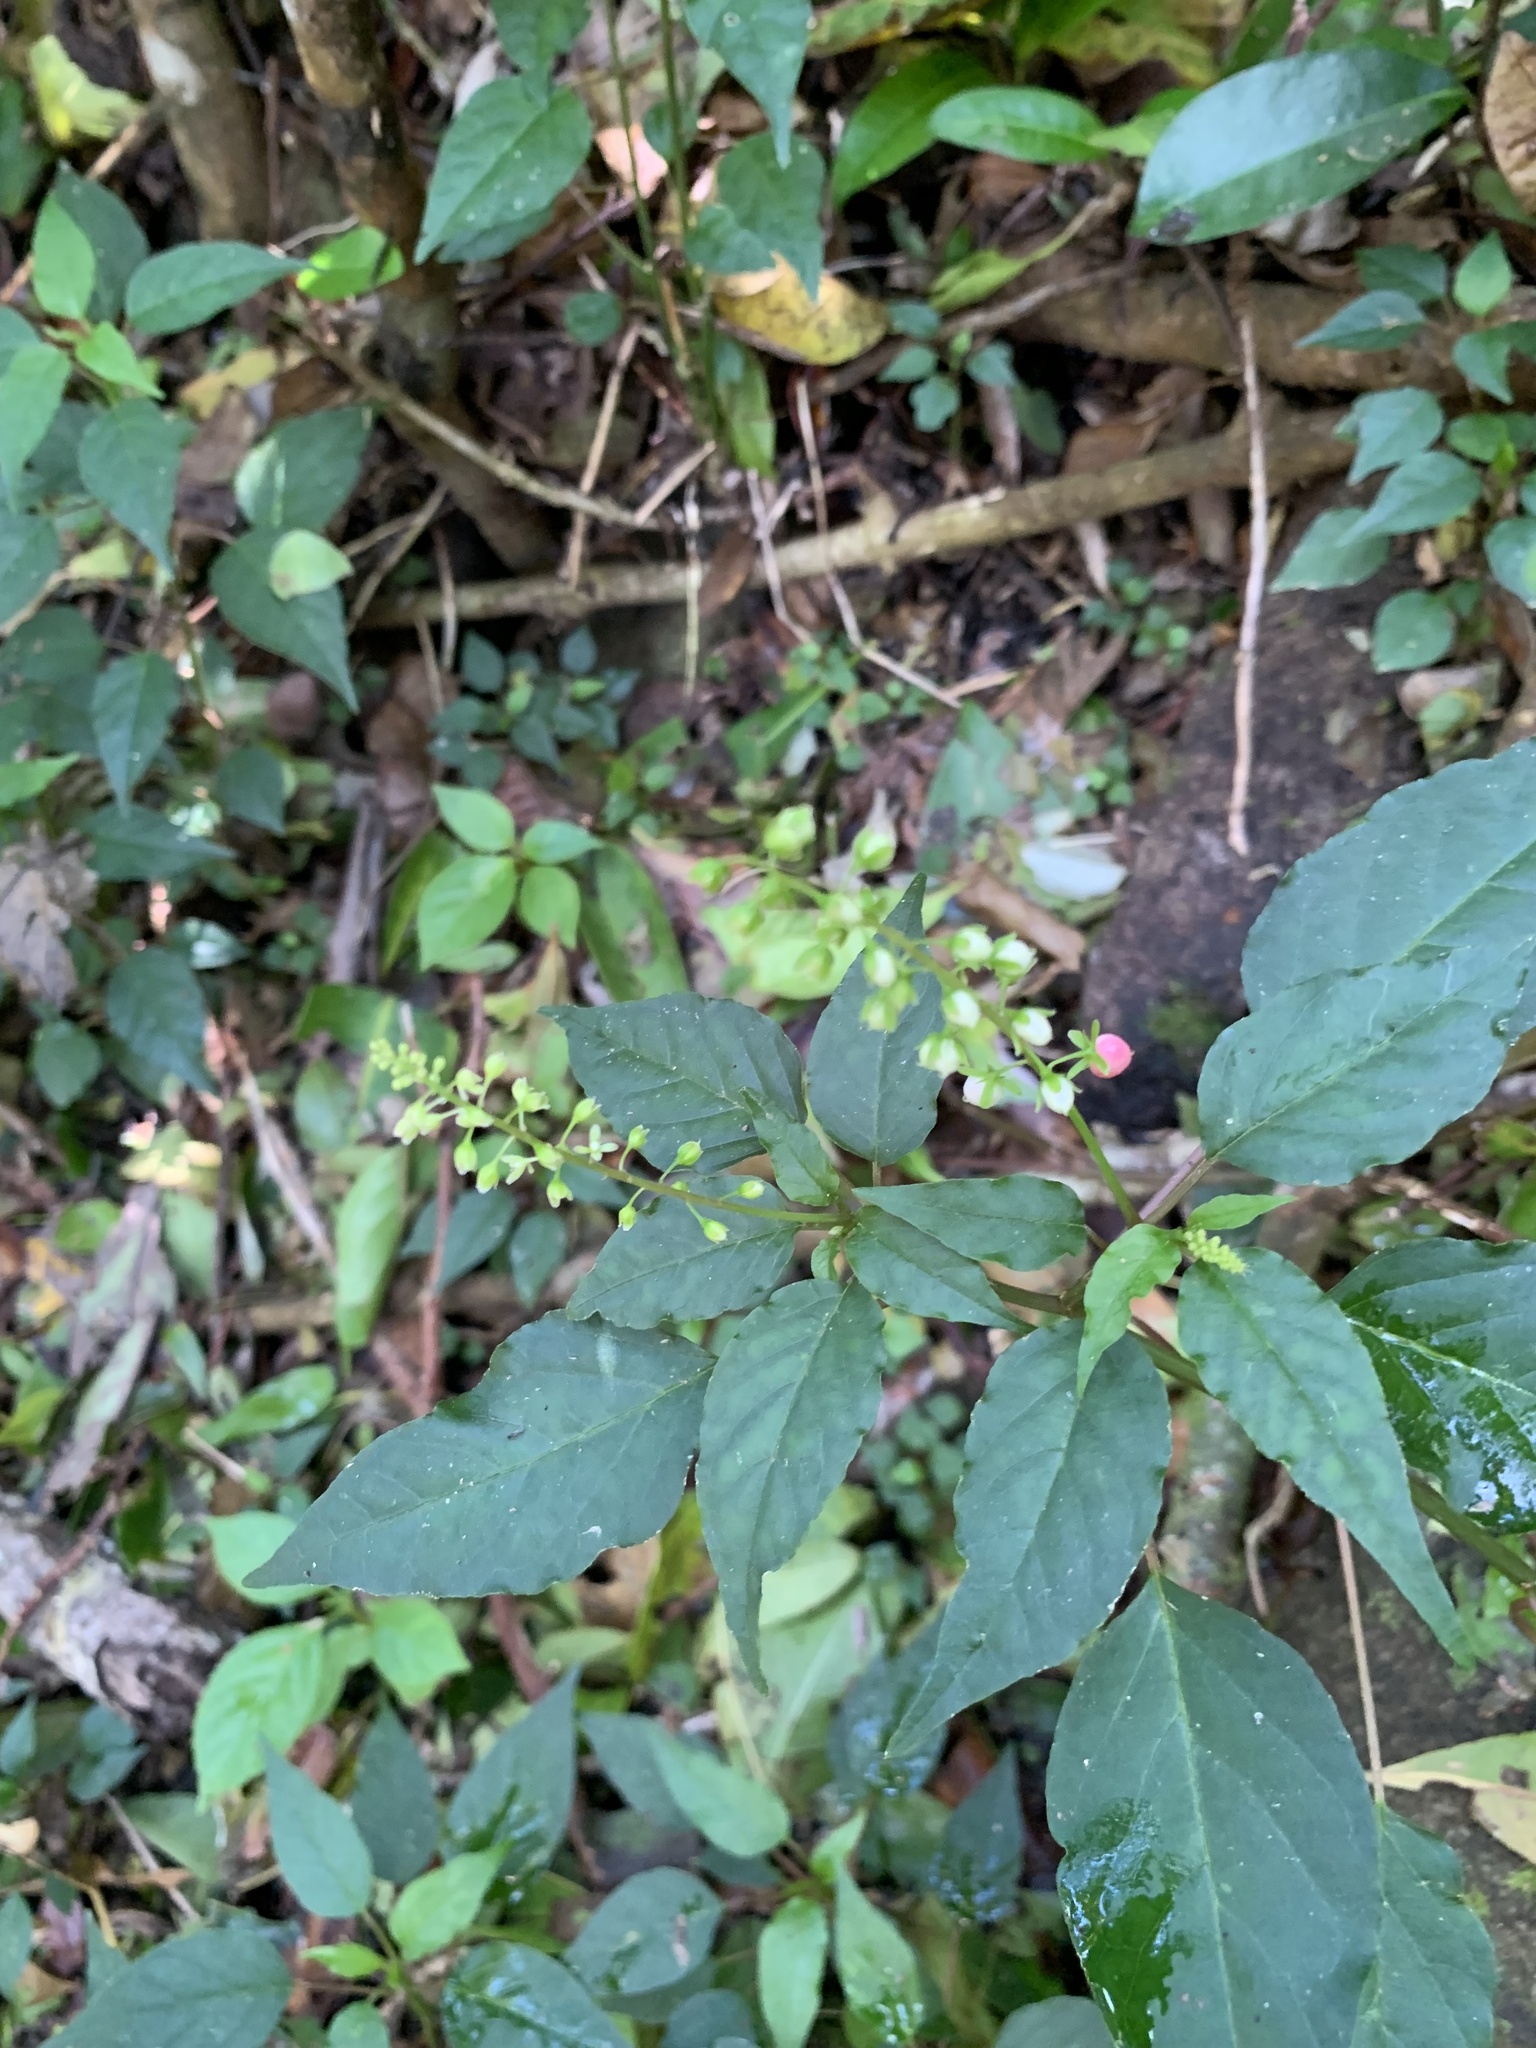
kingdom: Plantae
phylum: Tracheophyta
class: Magnoliopsida
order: Caryophyllales
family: Phytolaccaceae
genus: Rivina
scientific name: Rivina humilis
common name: Rougeplant
